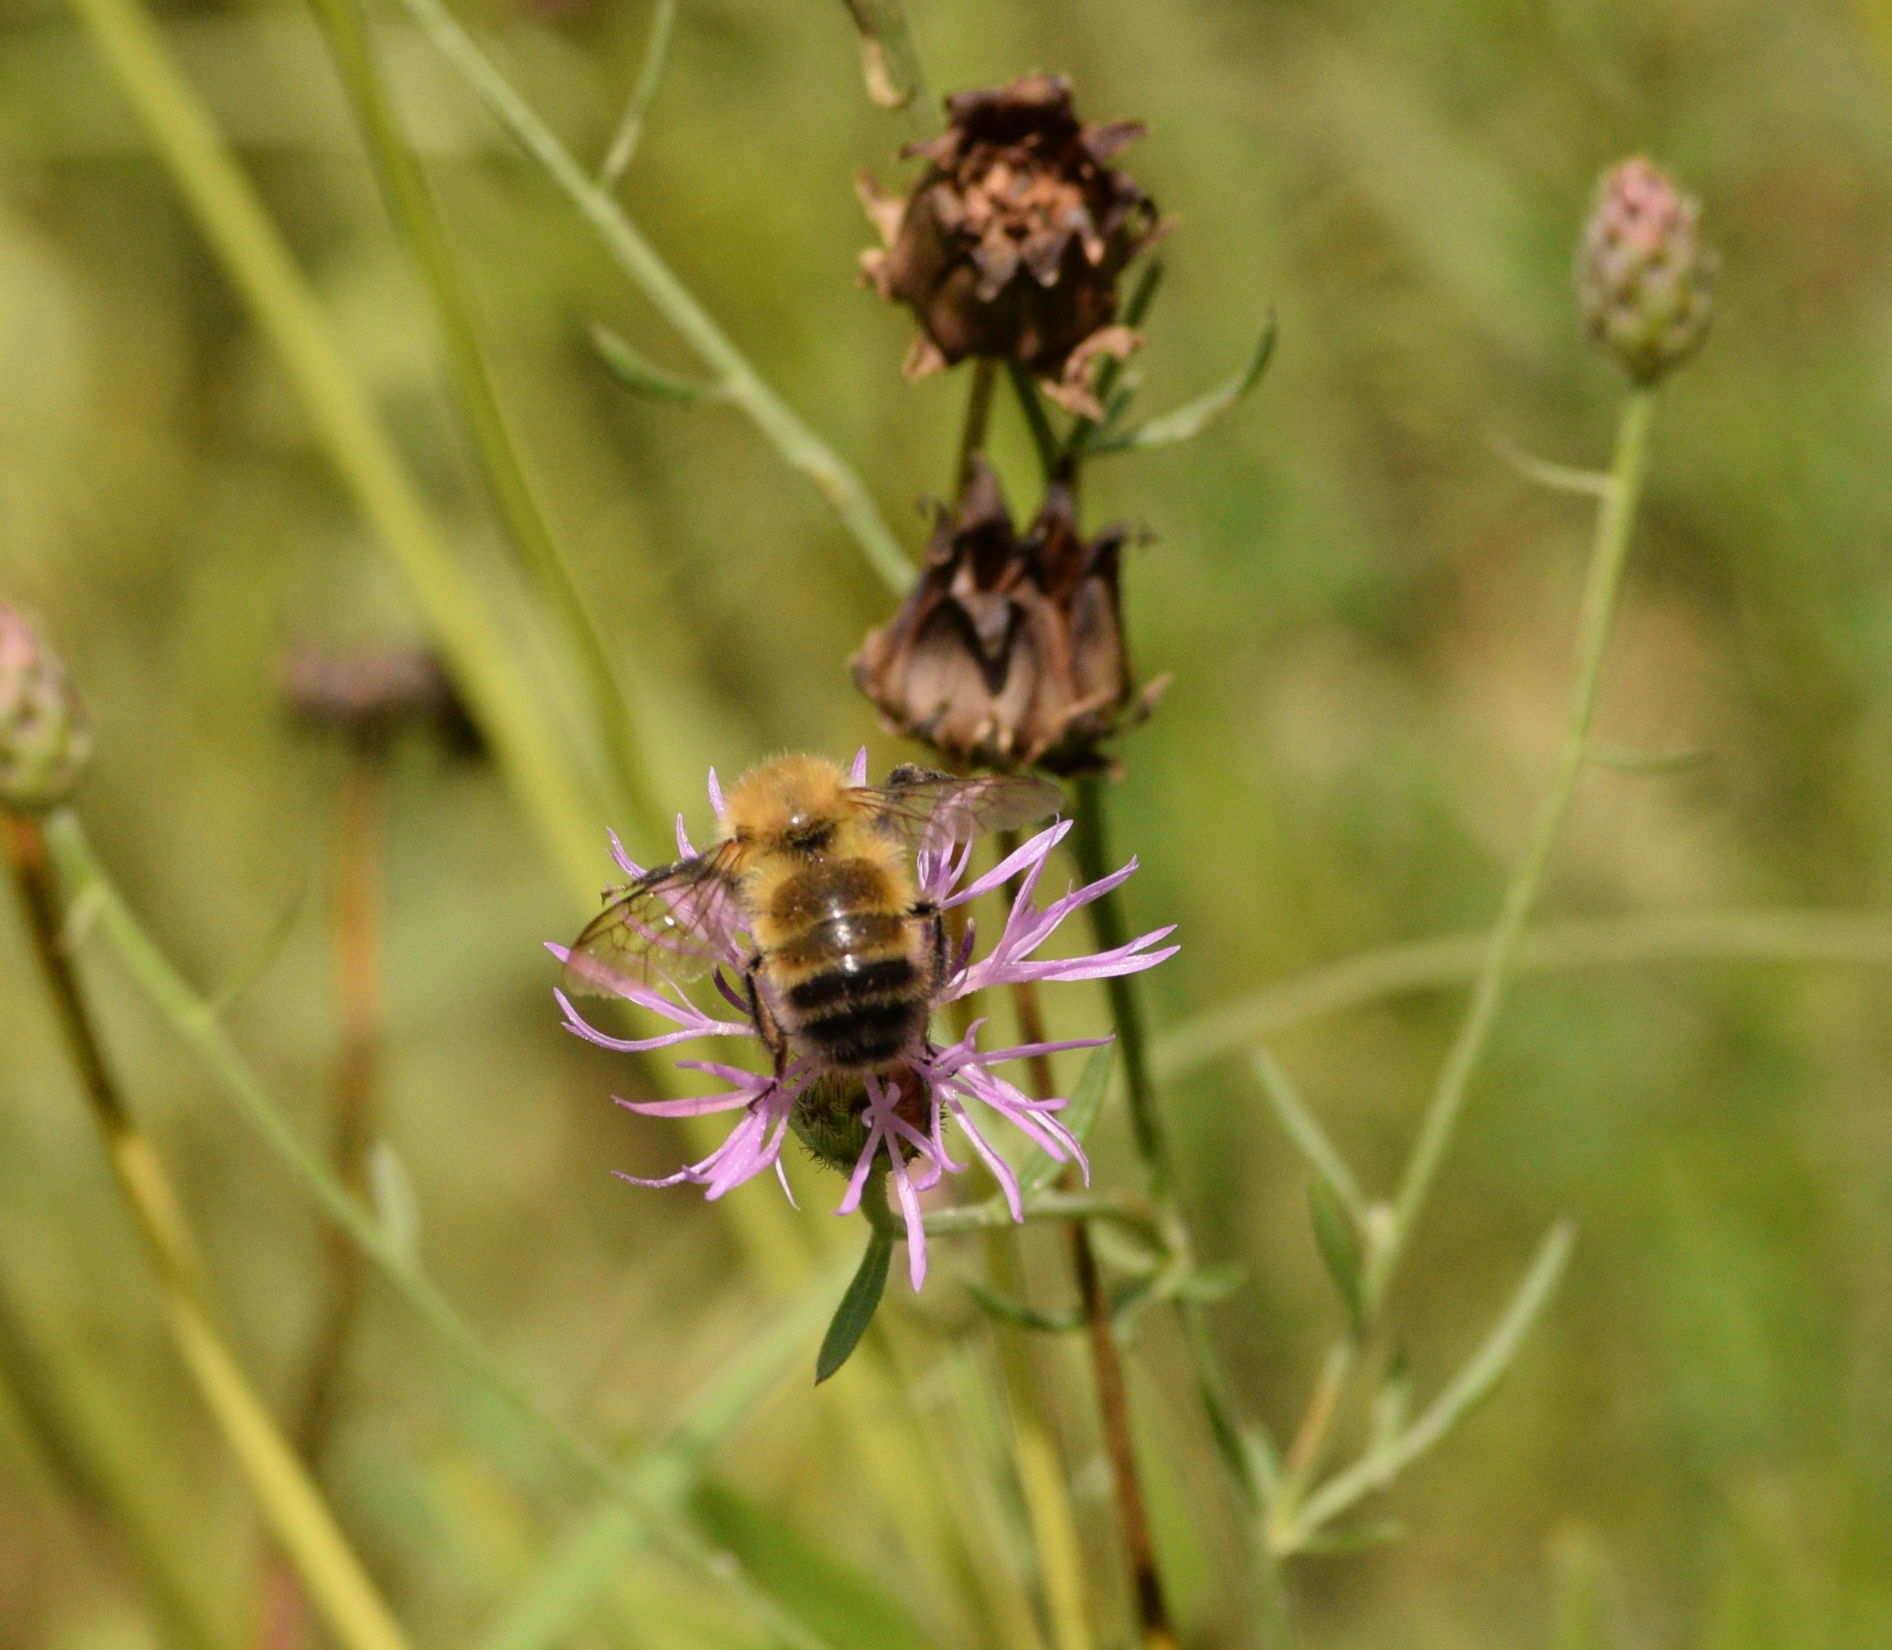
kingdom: Animalia
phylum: Arthropoda
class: Insecta
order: Hymenoptera
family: Apidae
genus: Bombus
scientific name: Bombus perplexus
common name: Confusing bumble bee
